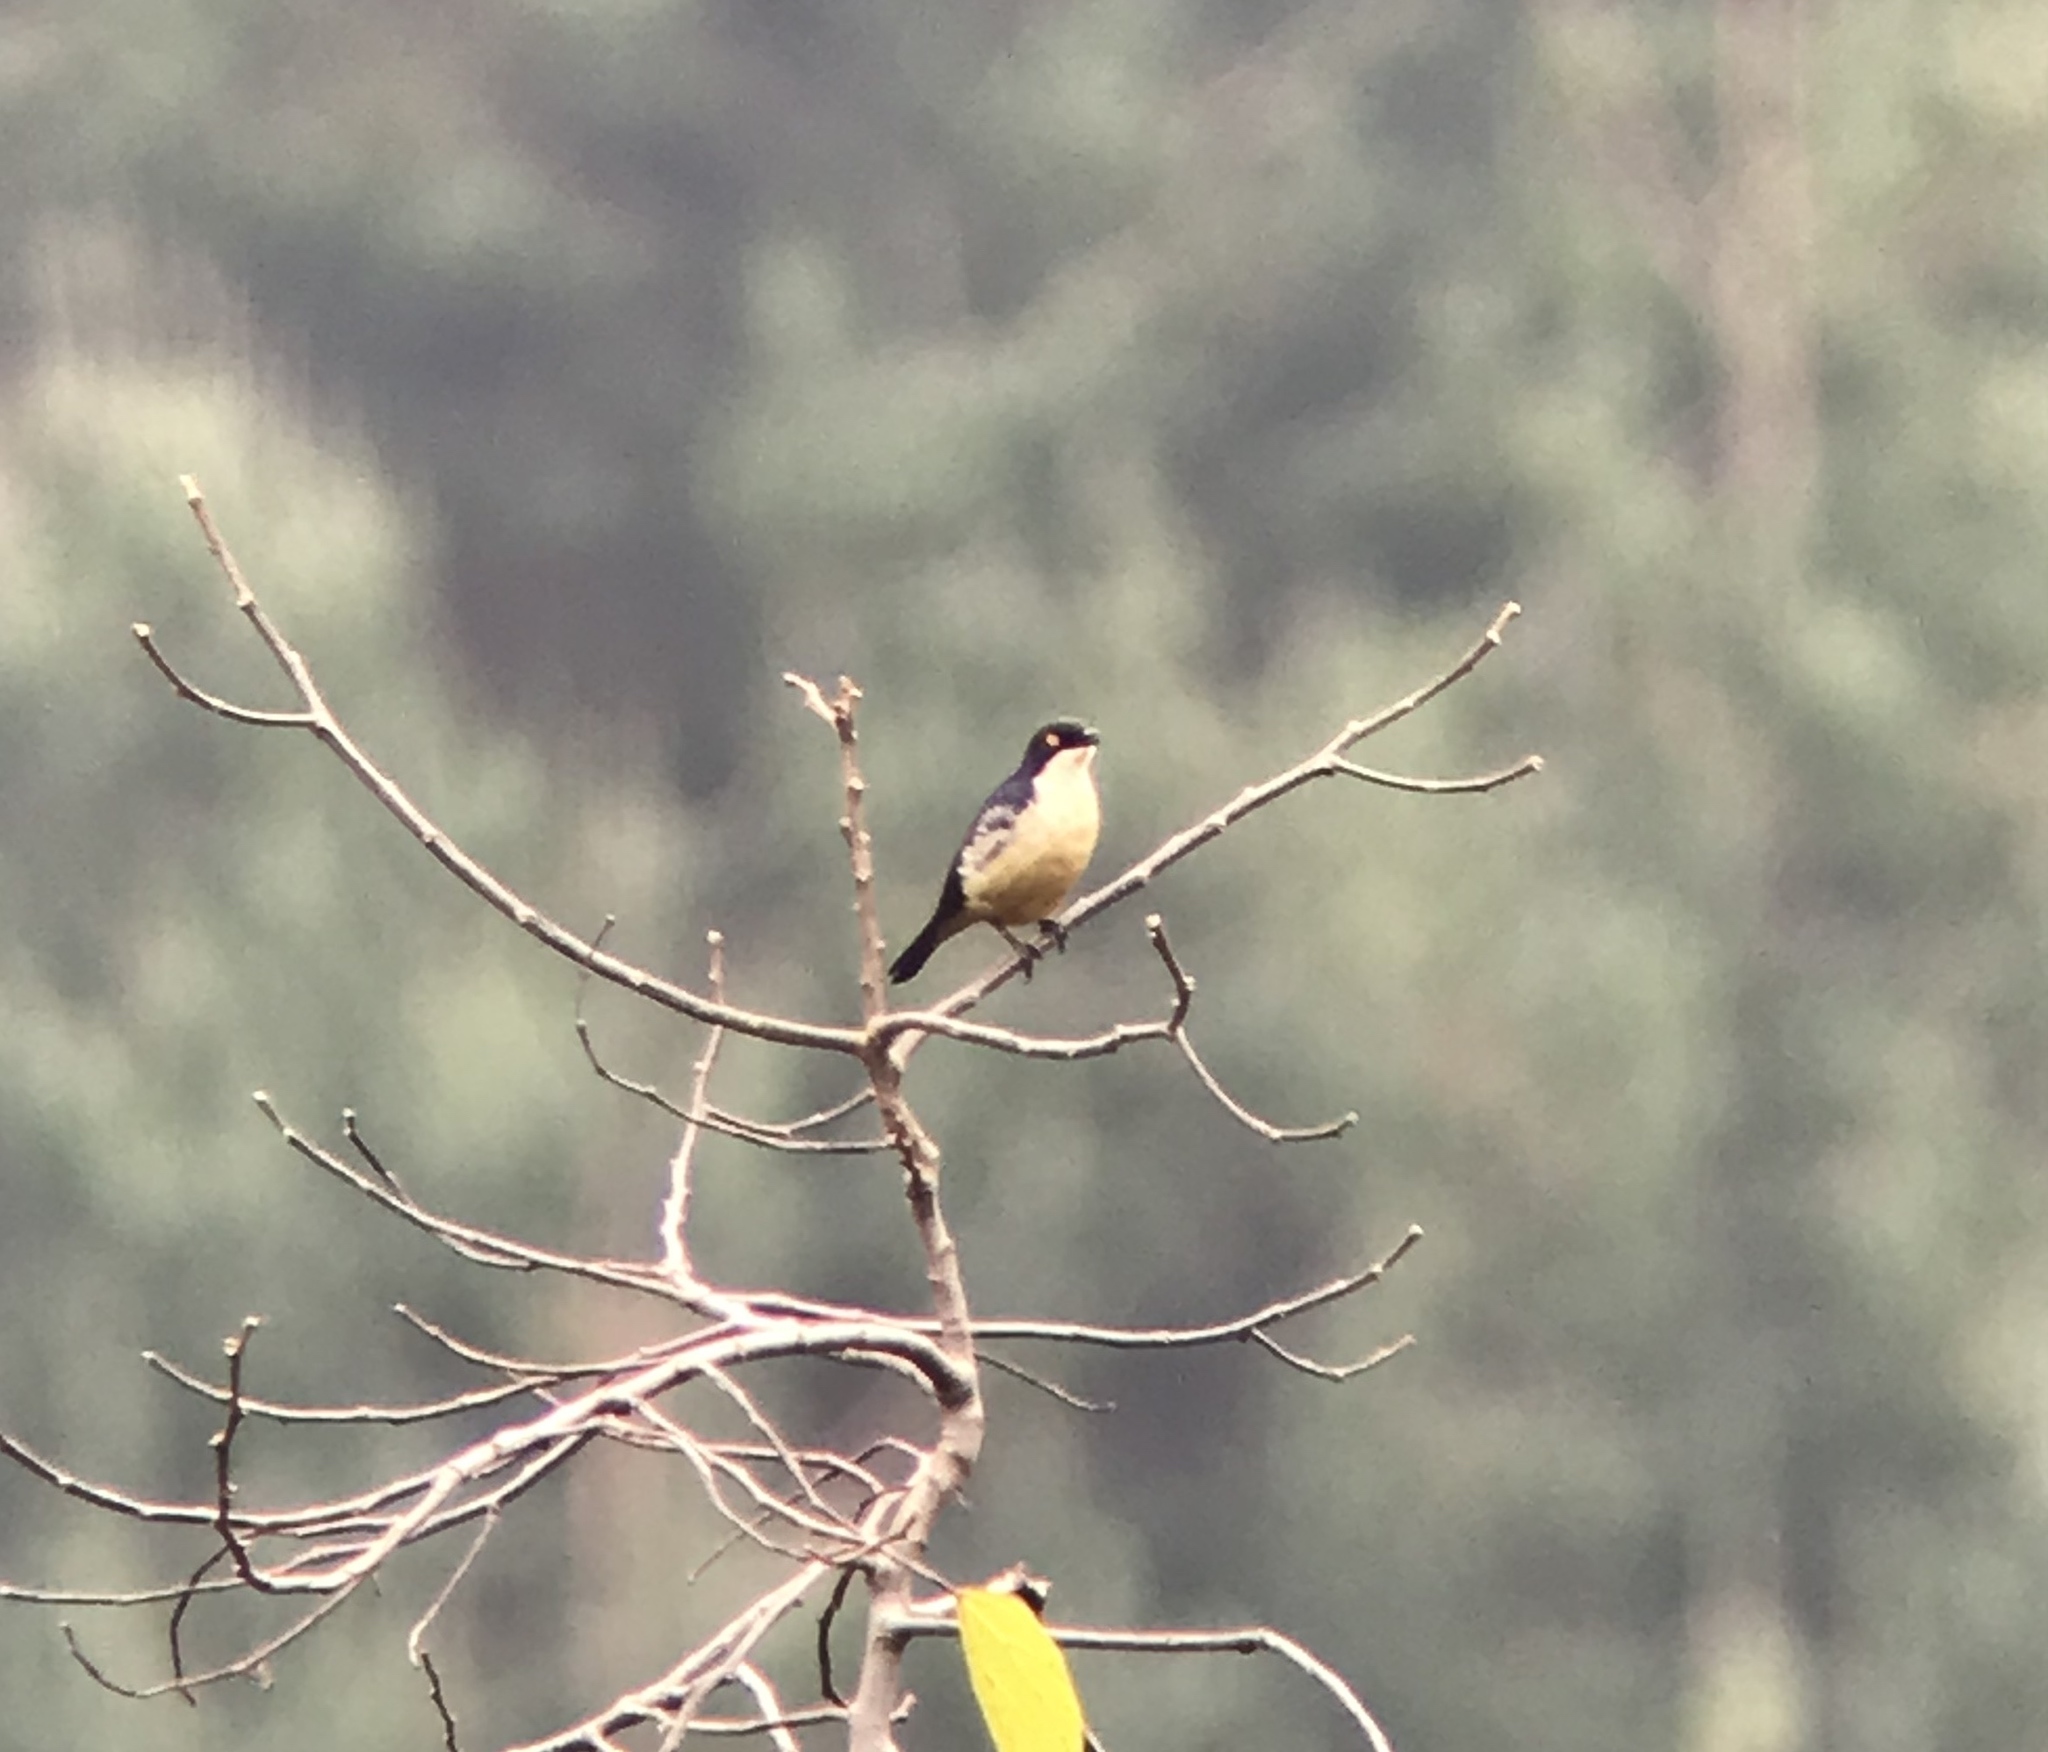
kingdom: Animalia
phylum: Chordata
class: Aves
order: Passeriformes
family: Sturnidae
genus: Poeoptera
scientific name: Poeoptera sharpii
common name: Sharpe's starling
